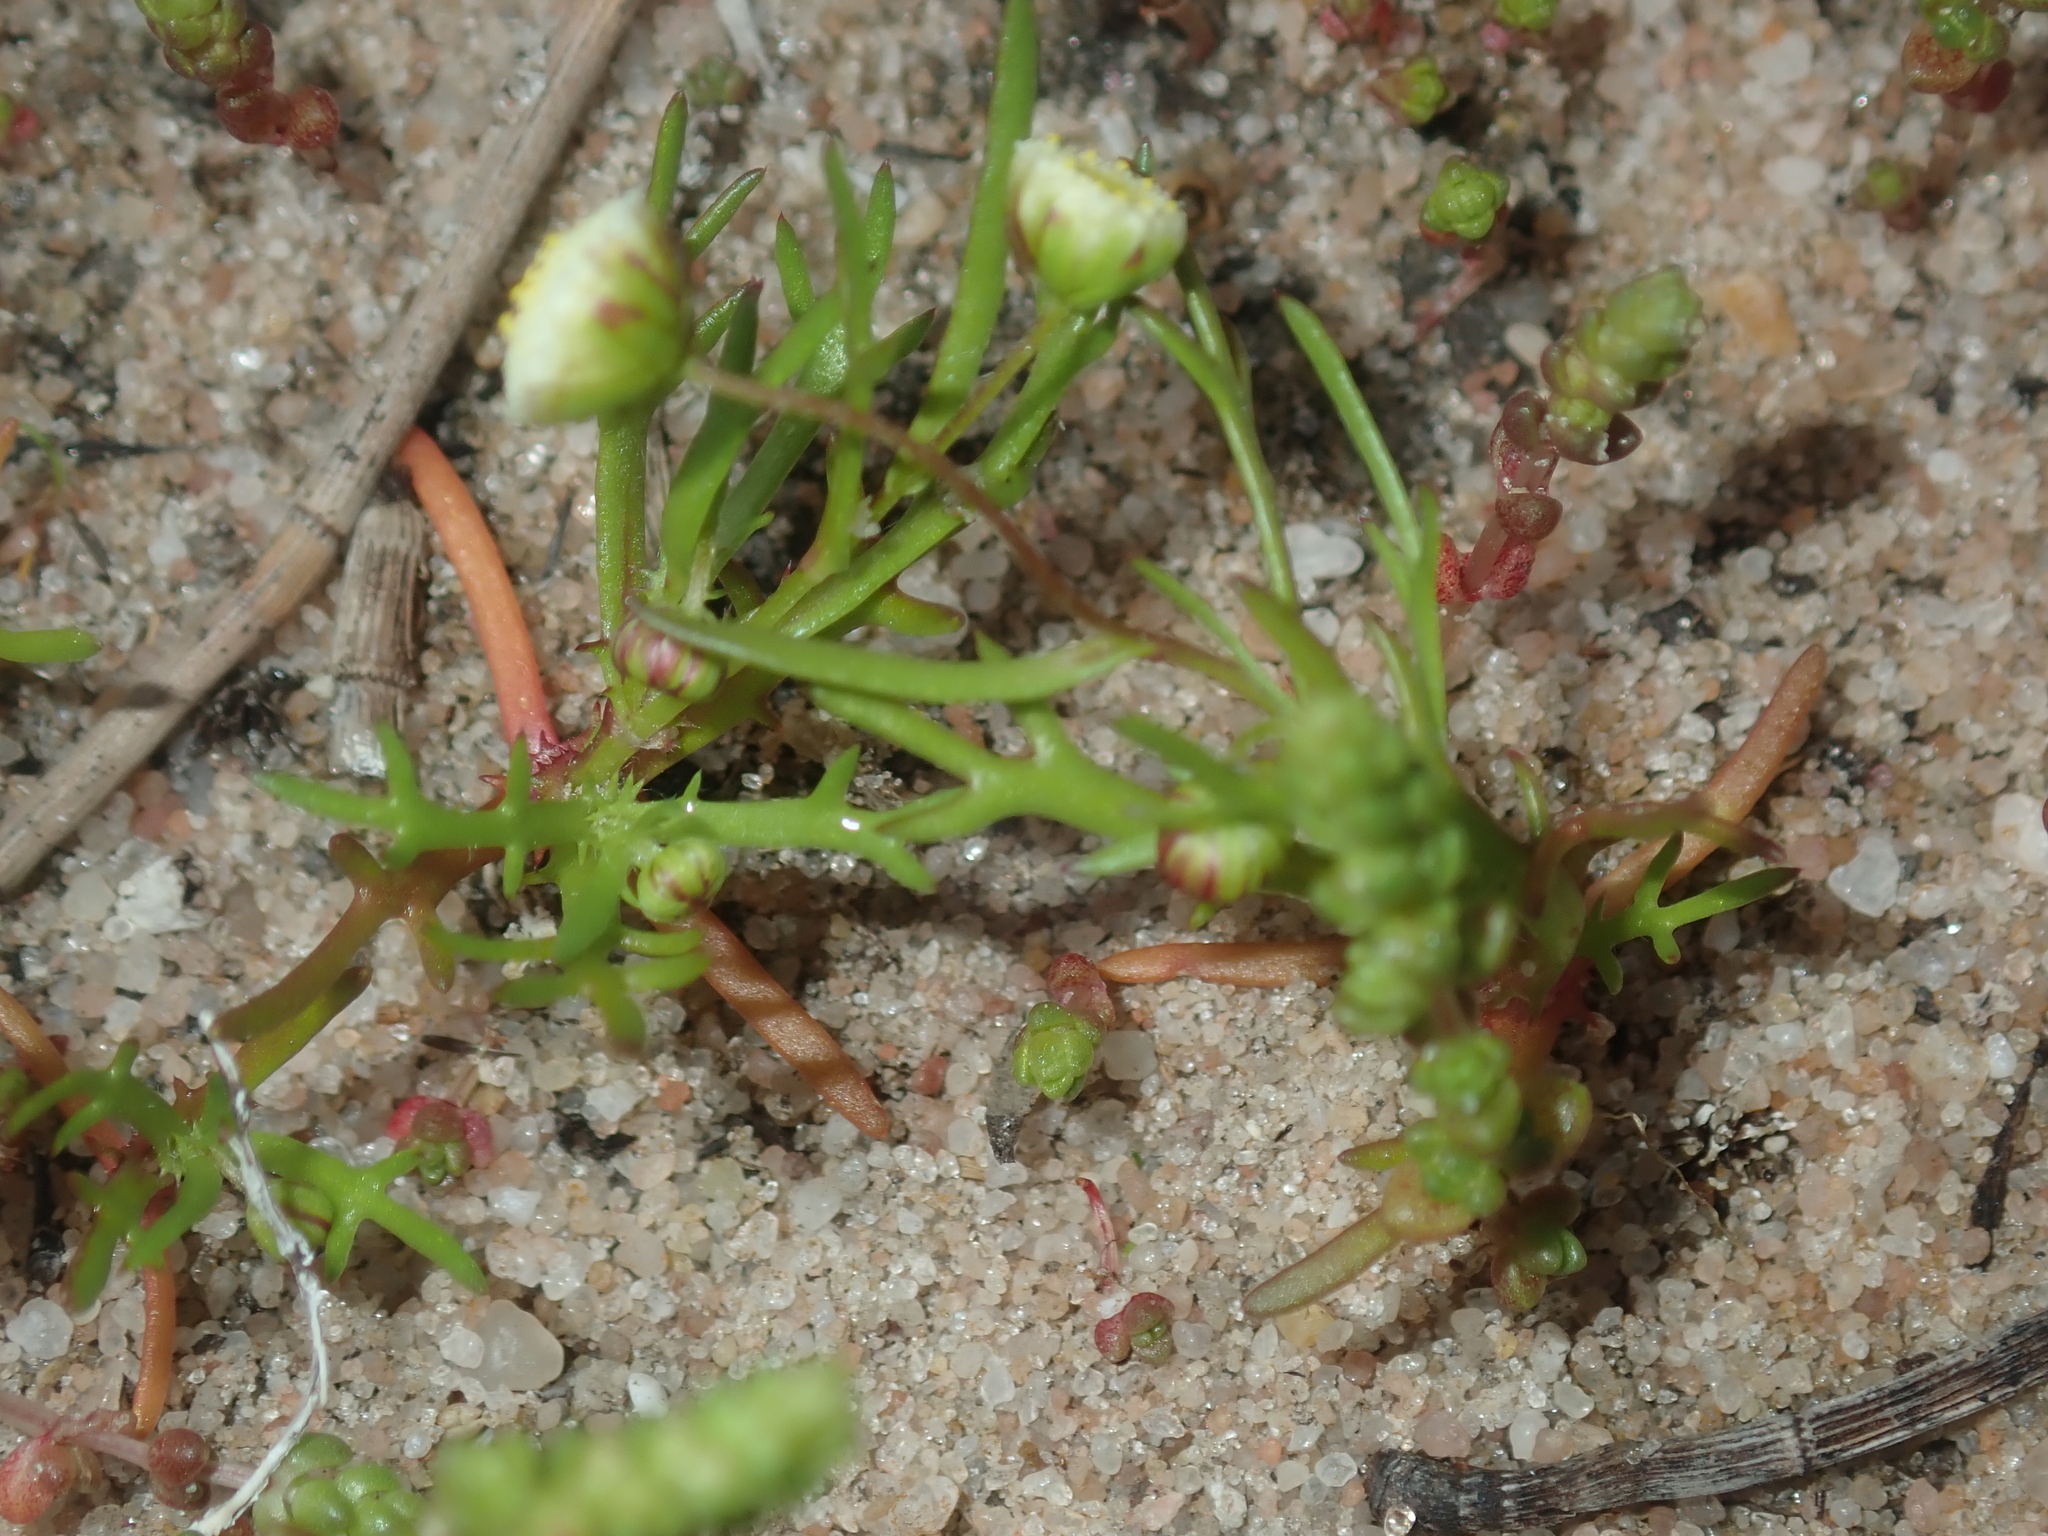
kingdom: Plantae
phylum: Tracheophyta
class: Magnoliopsida
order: Asterales
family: Asteraceae
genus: Cotula
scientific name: Cotula bipinnata
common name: Ferny buttonweed
